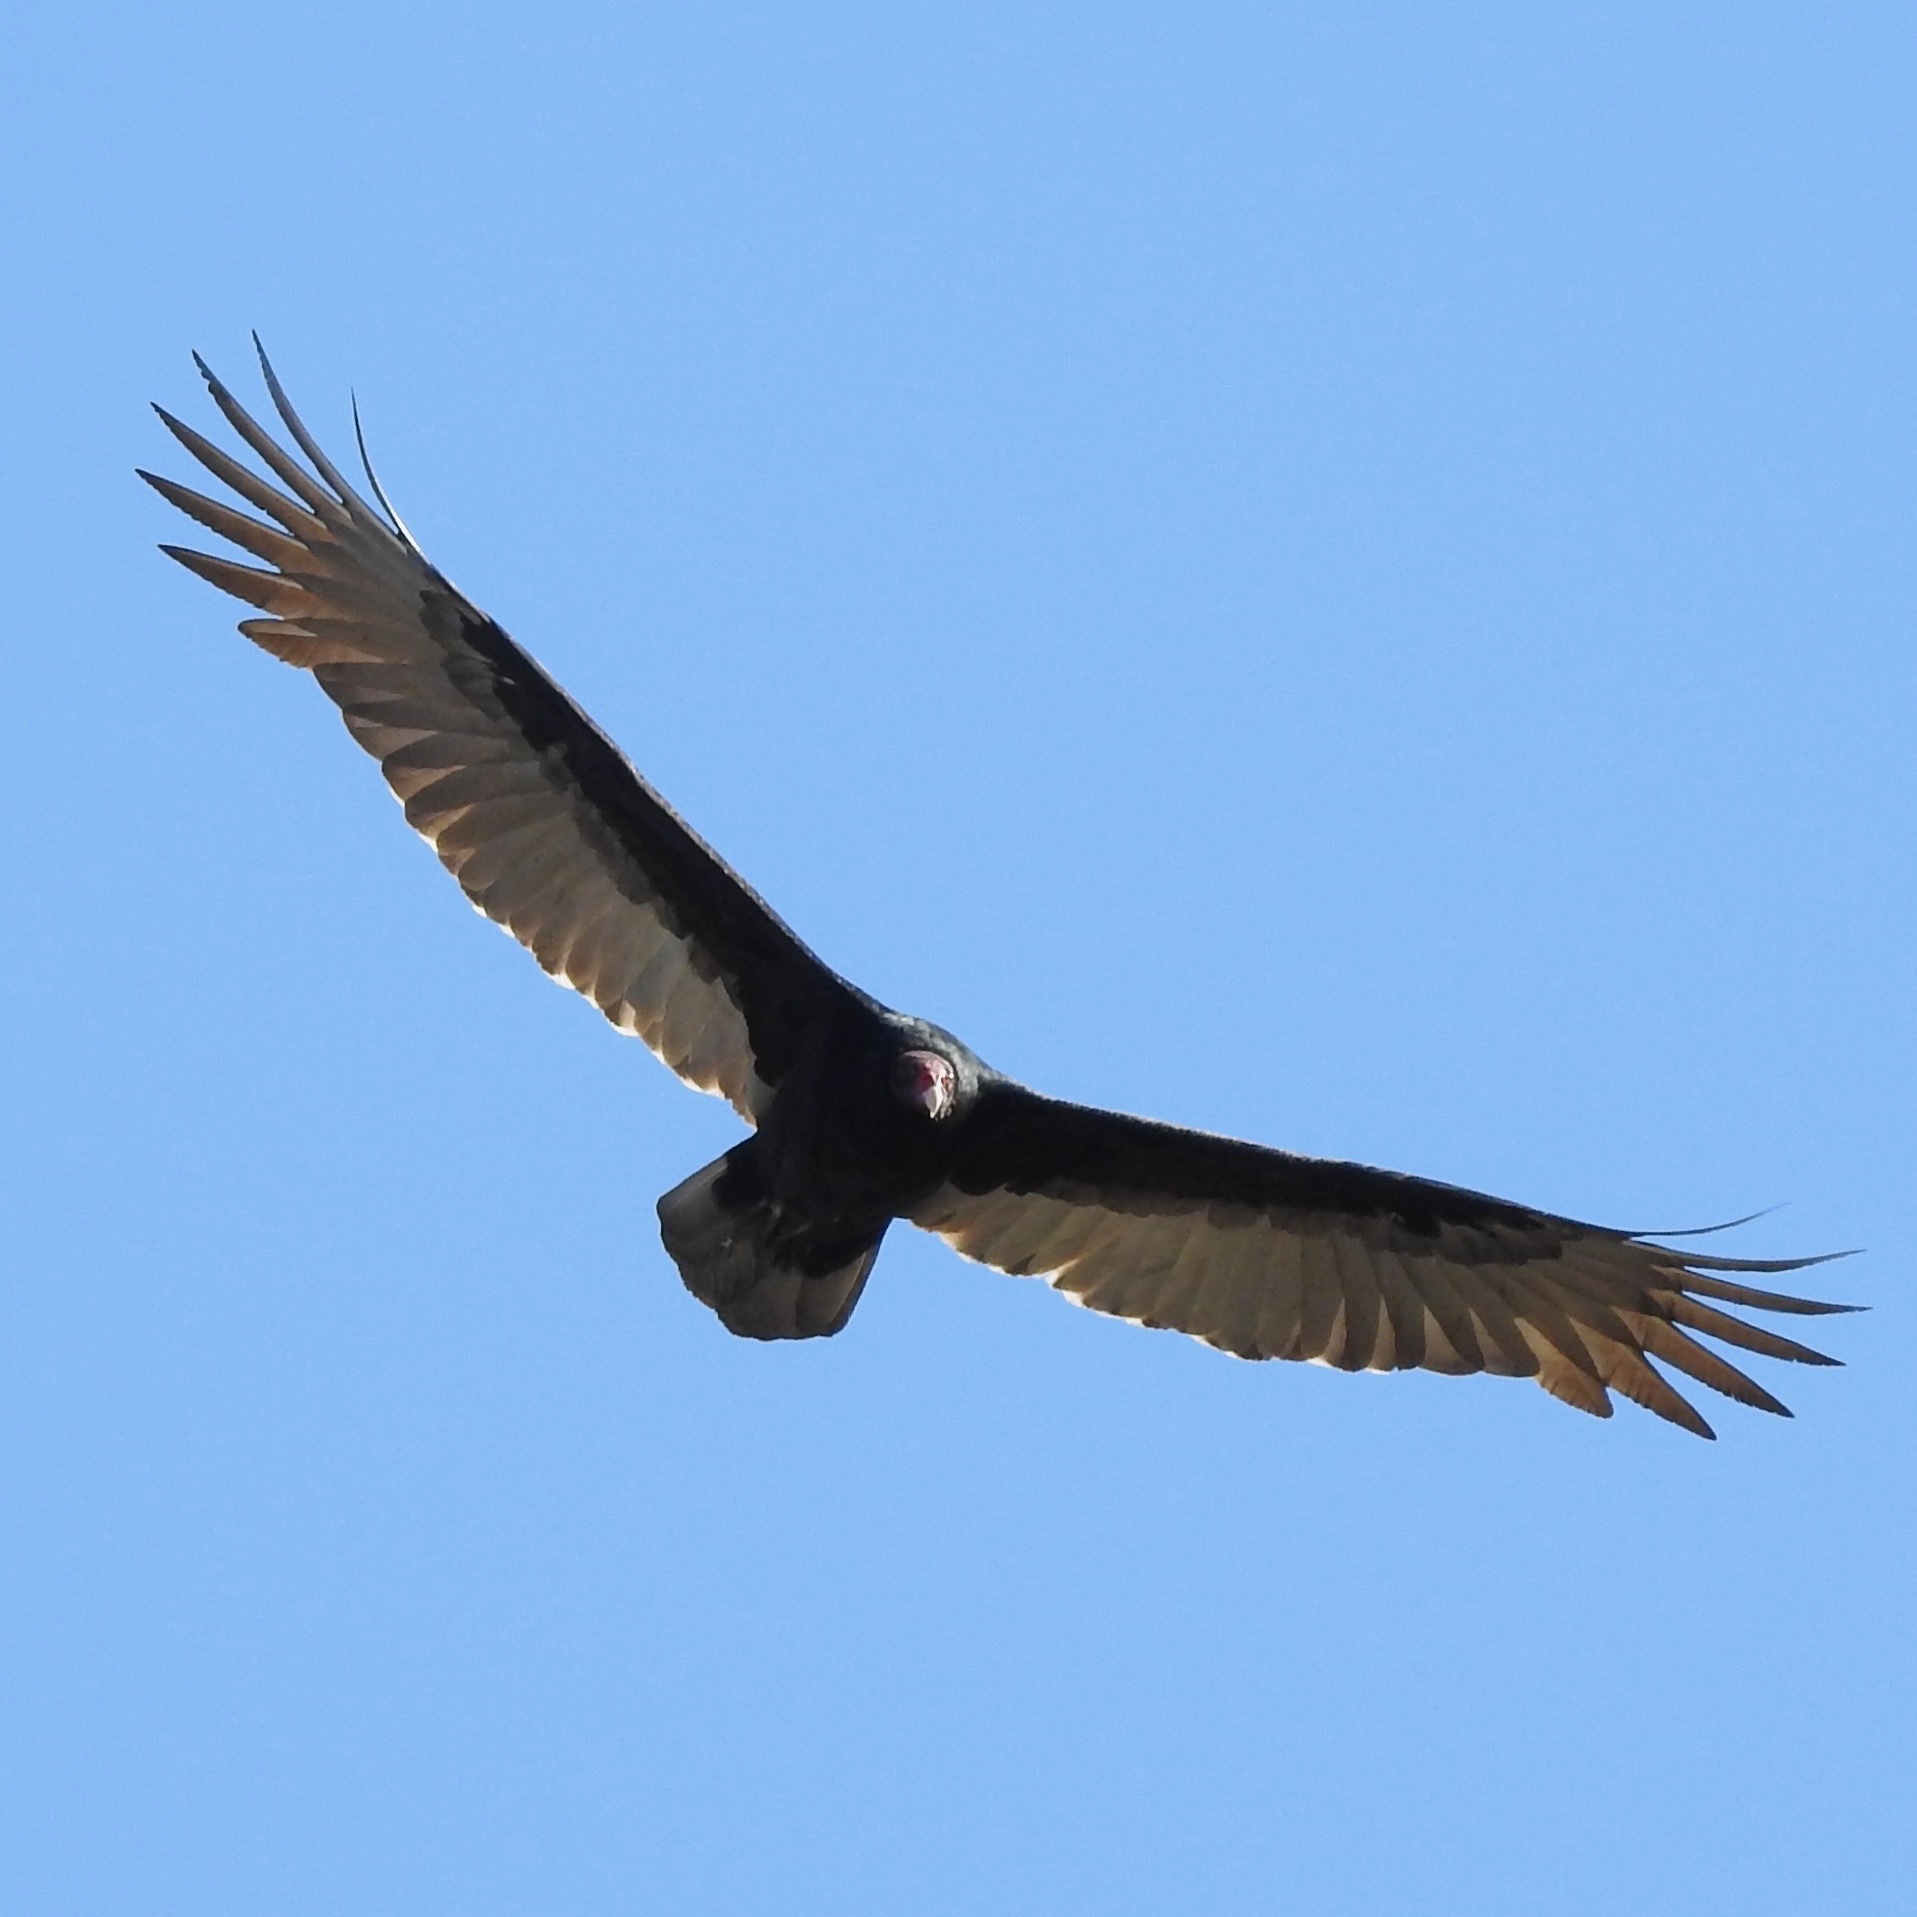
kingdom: Animalia
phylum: Chordata
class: Aves
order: Accipitriformes
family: Cathartidae
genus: Cathartes
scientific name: Cathartes aura
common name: Turkey vulture
